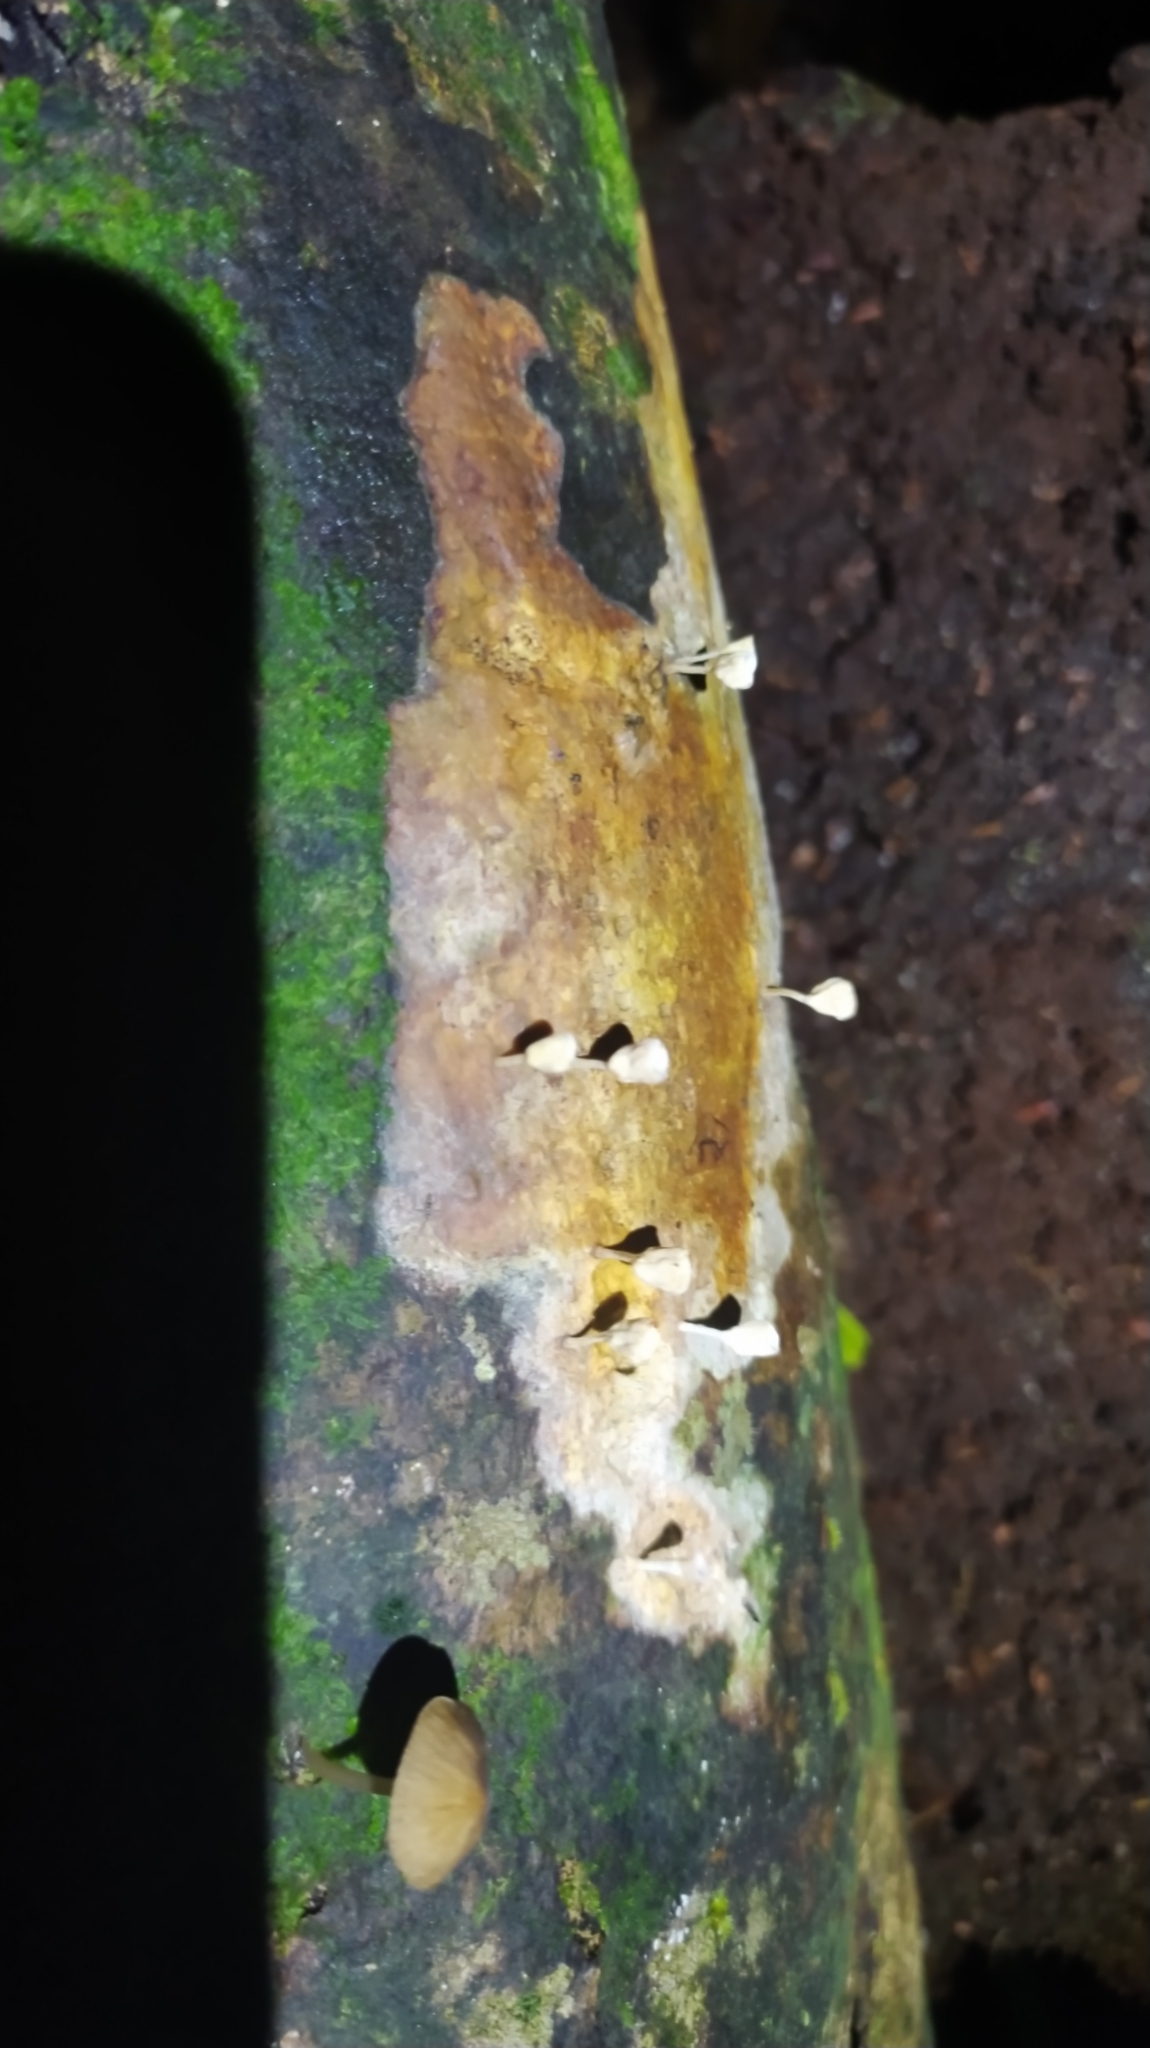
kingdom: Fungi
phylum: Basidiomycota
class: Agaricomycetes
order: Agaricales
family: Omphalotaceae
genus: Gymnopus
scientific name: Gymnopus montagnei
